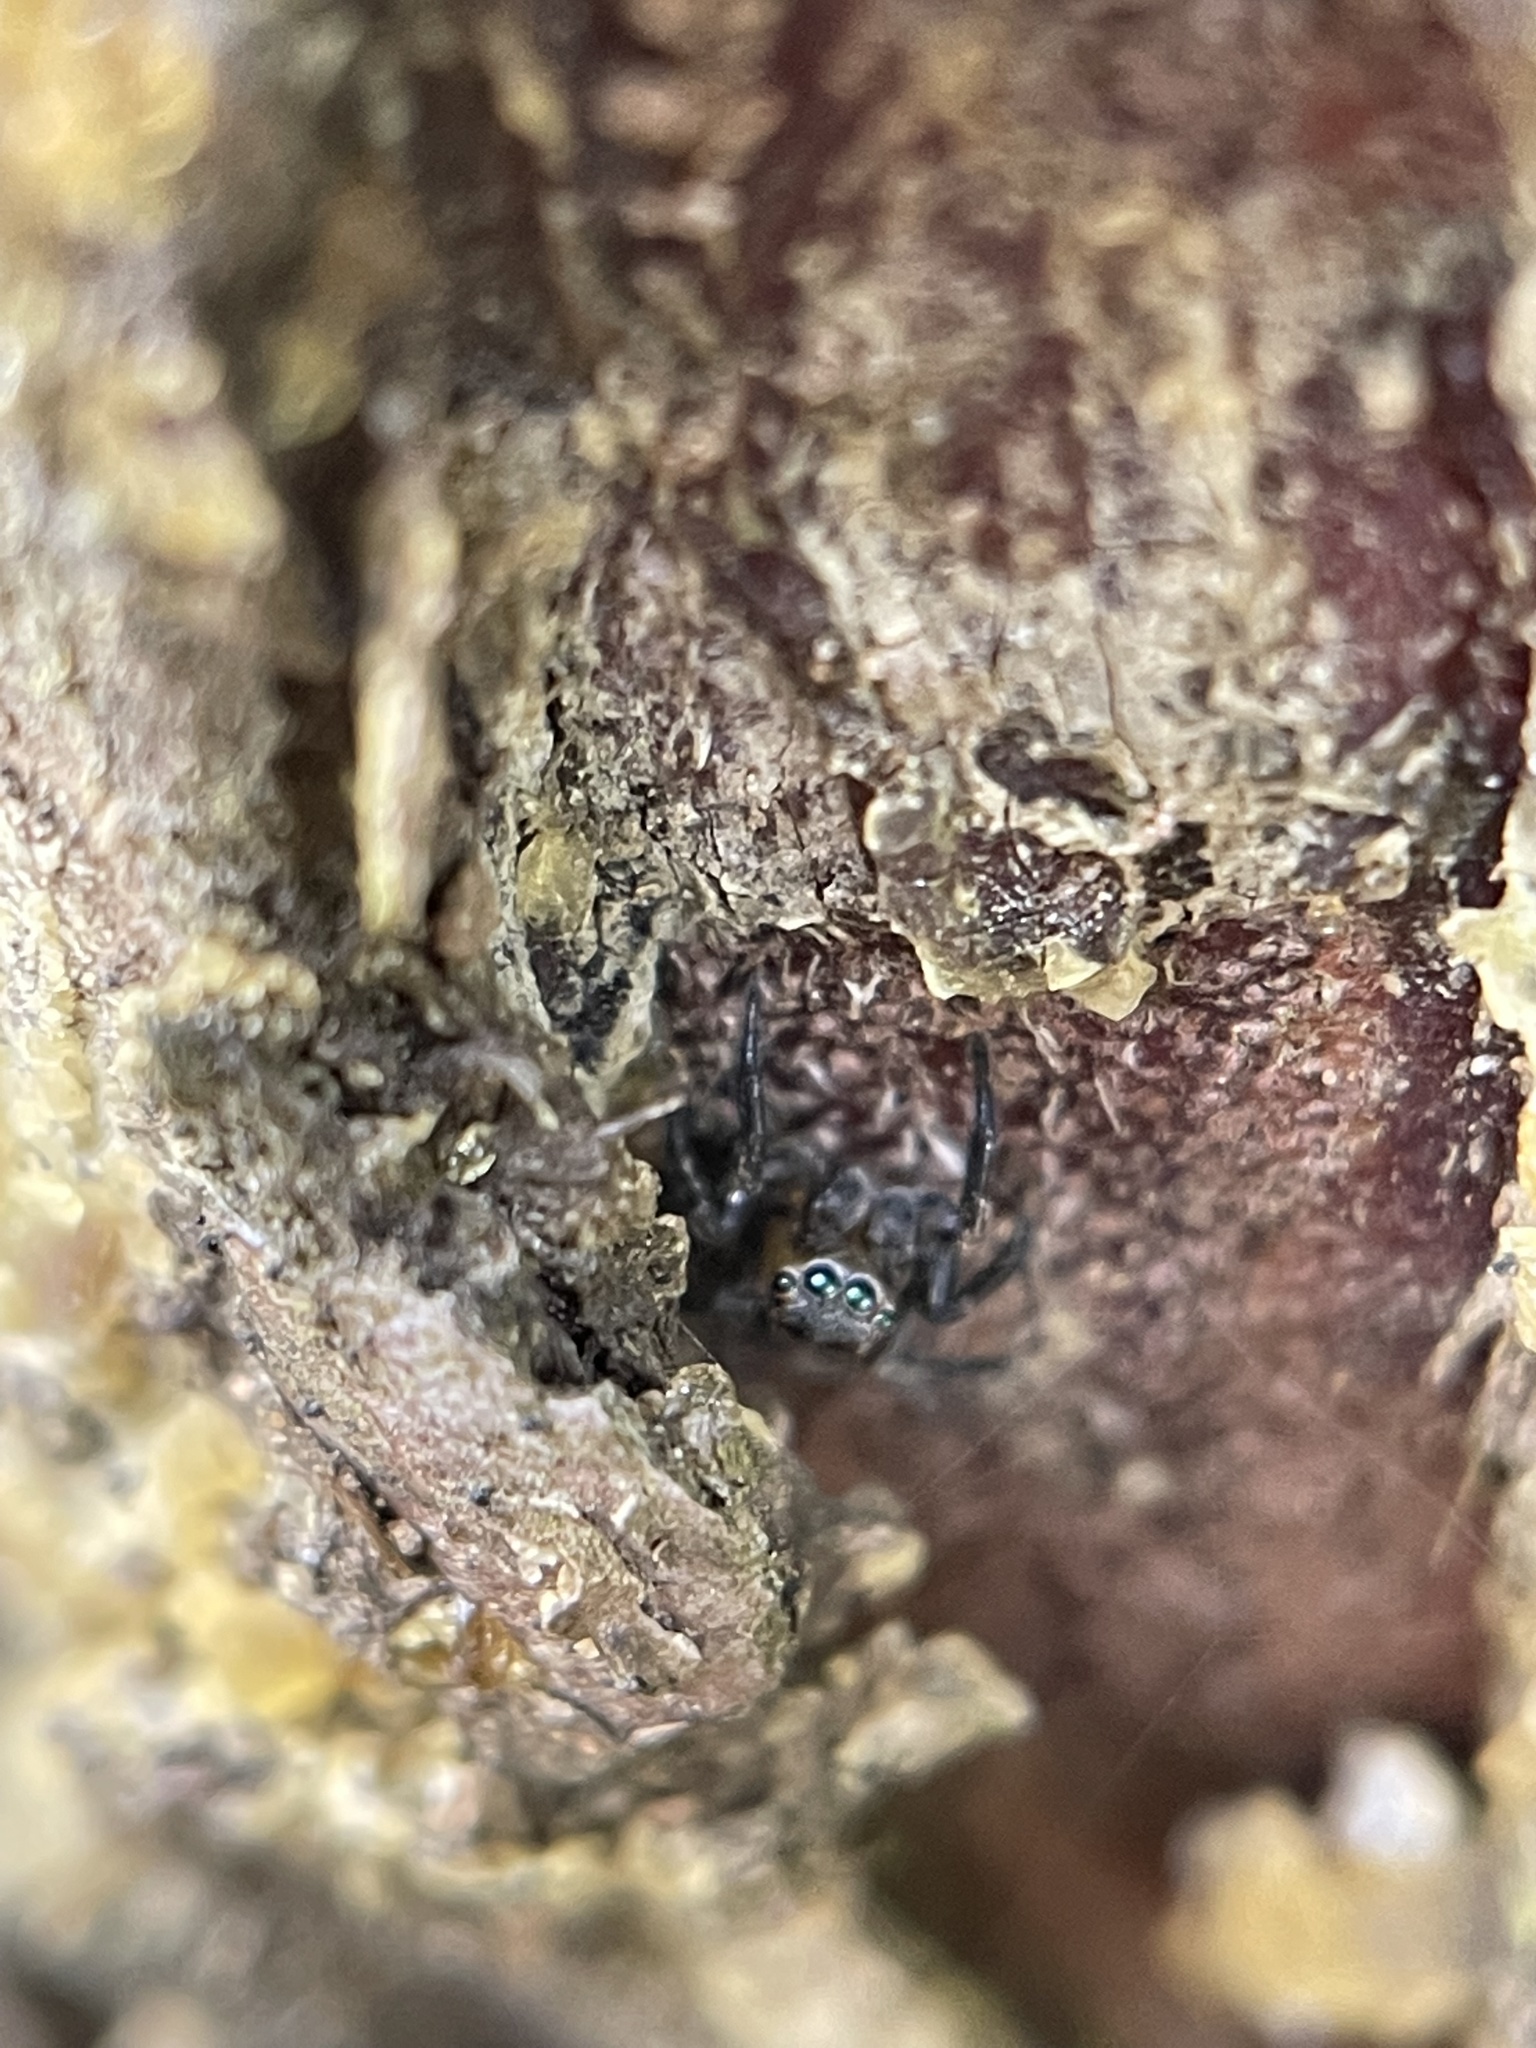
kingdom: Animalia
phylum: Arthropoda
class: Arachnida
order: Araneae
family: Salticidae
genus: Naphrys
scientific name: Naphrys pulex
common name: Flea jumping spider
